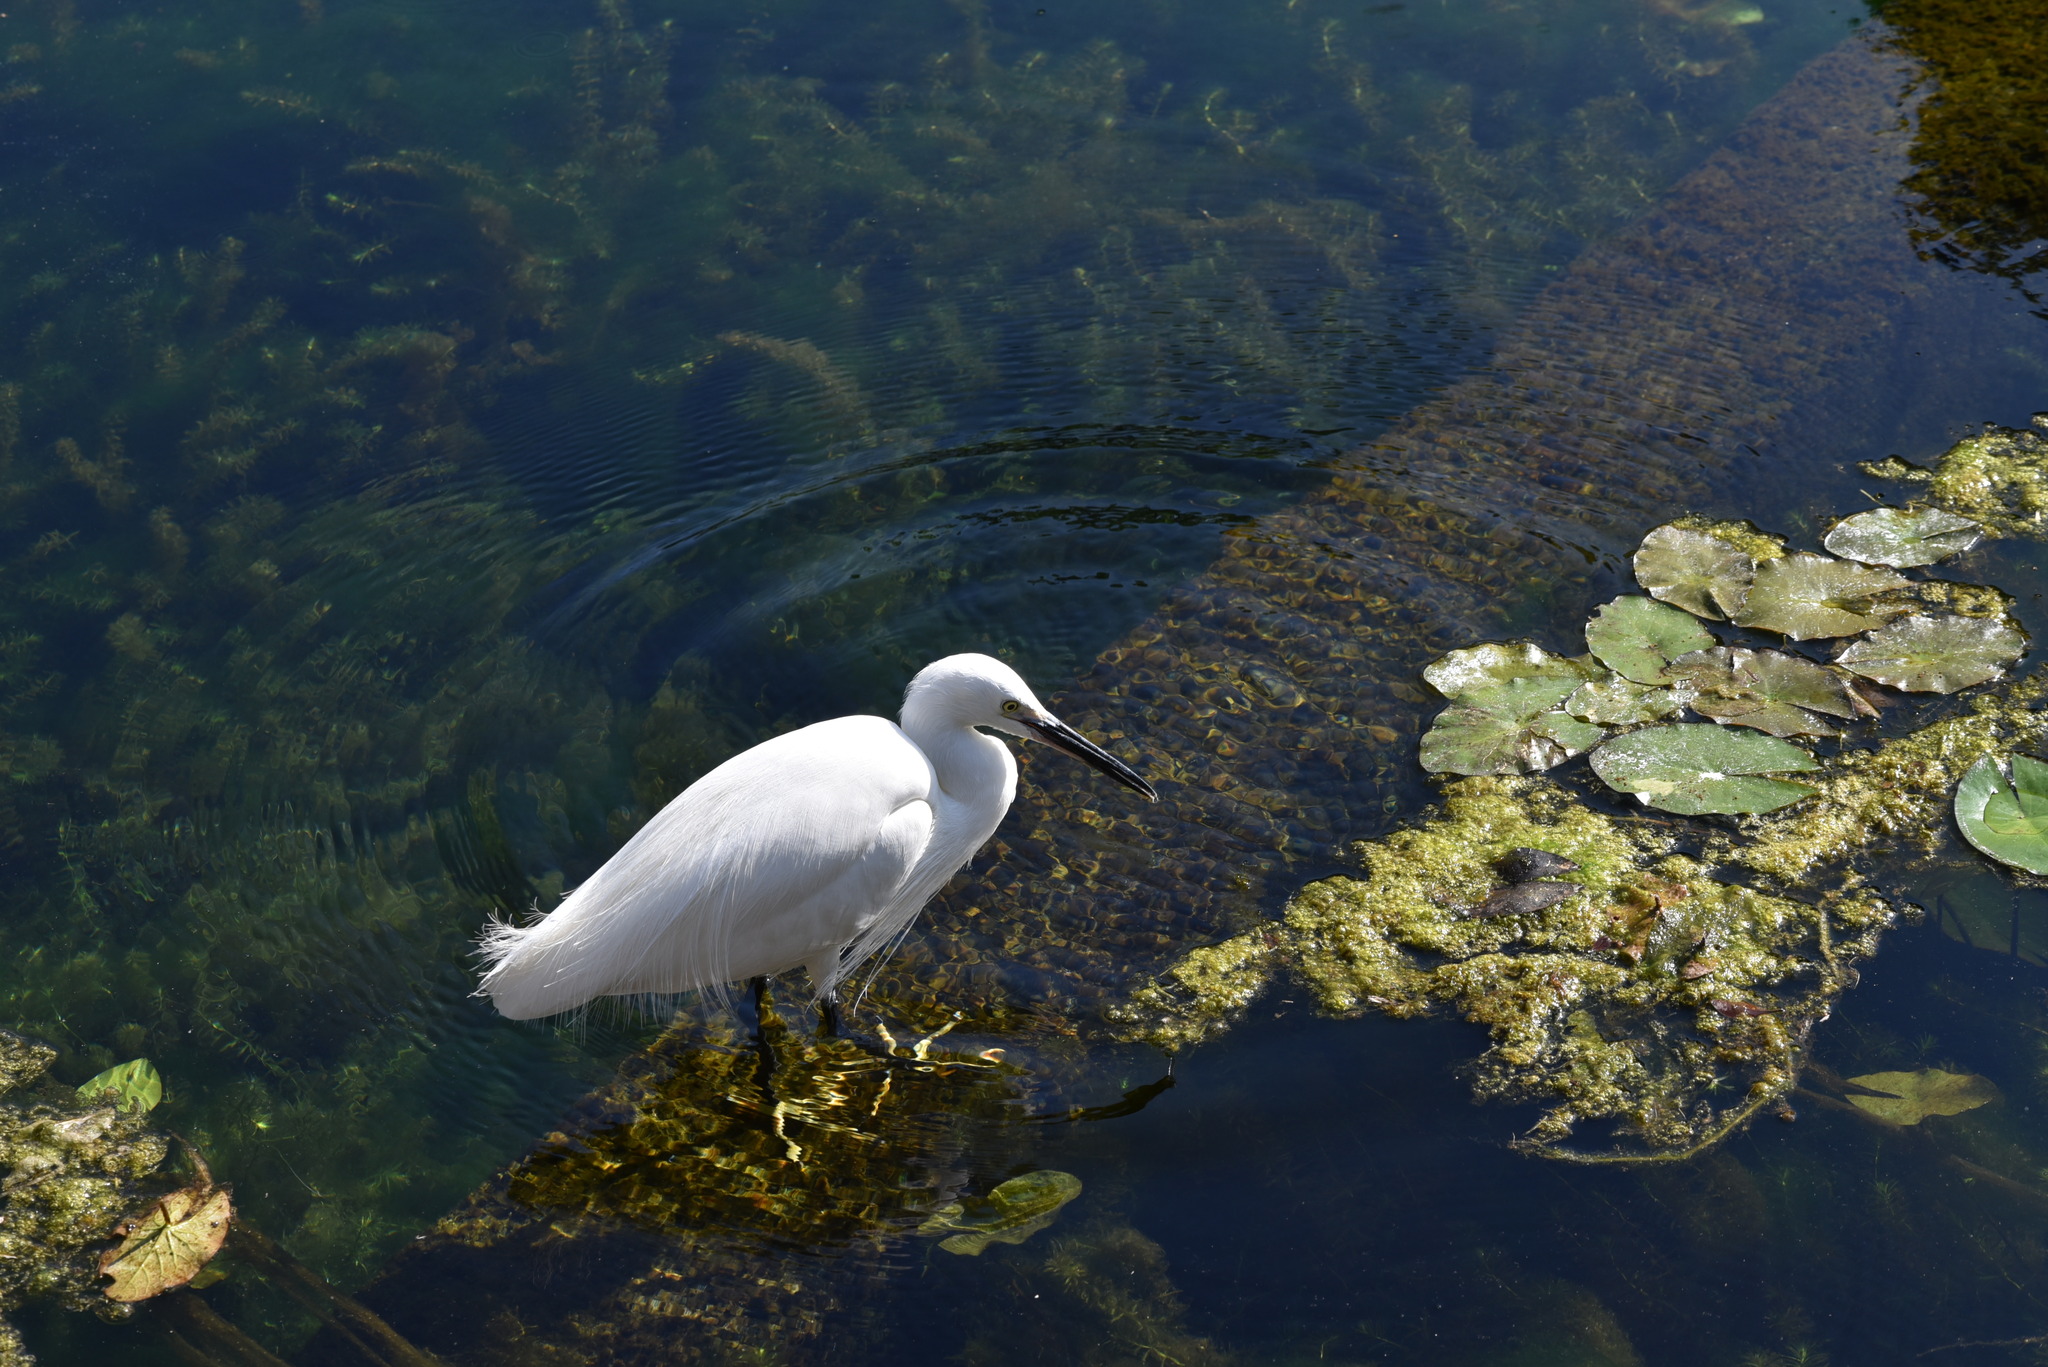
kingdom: Animalia
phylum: Chordata
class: Aves
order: Pelecaniformes
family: Ardeidae
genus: Egretta
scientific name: Egretta garzetta
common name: Little egret
